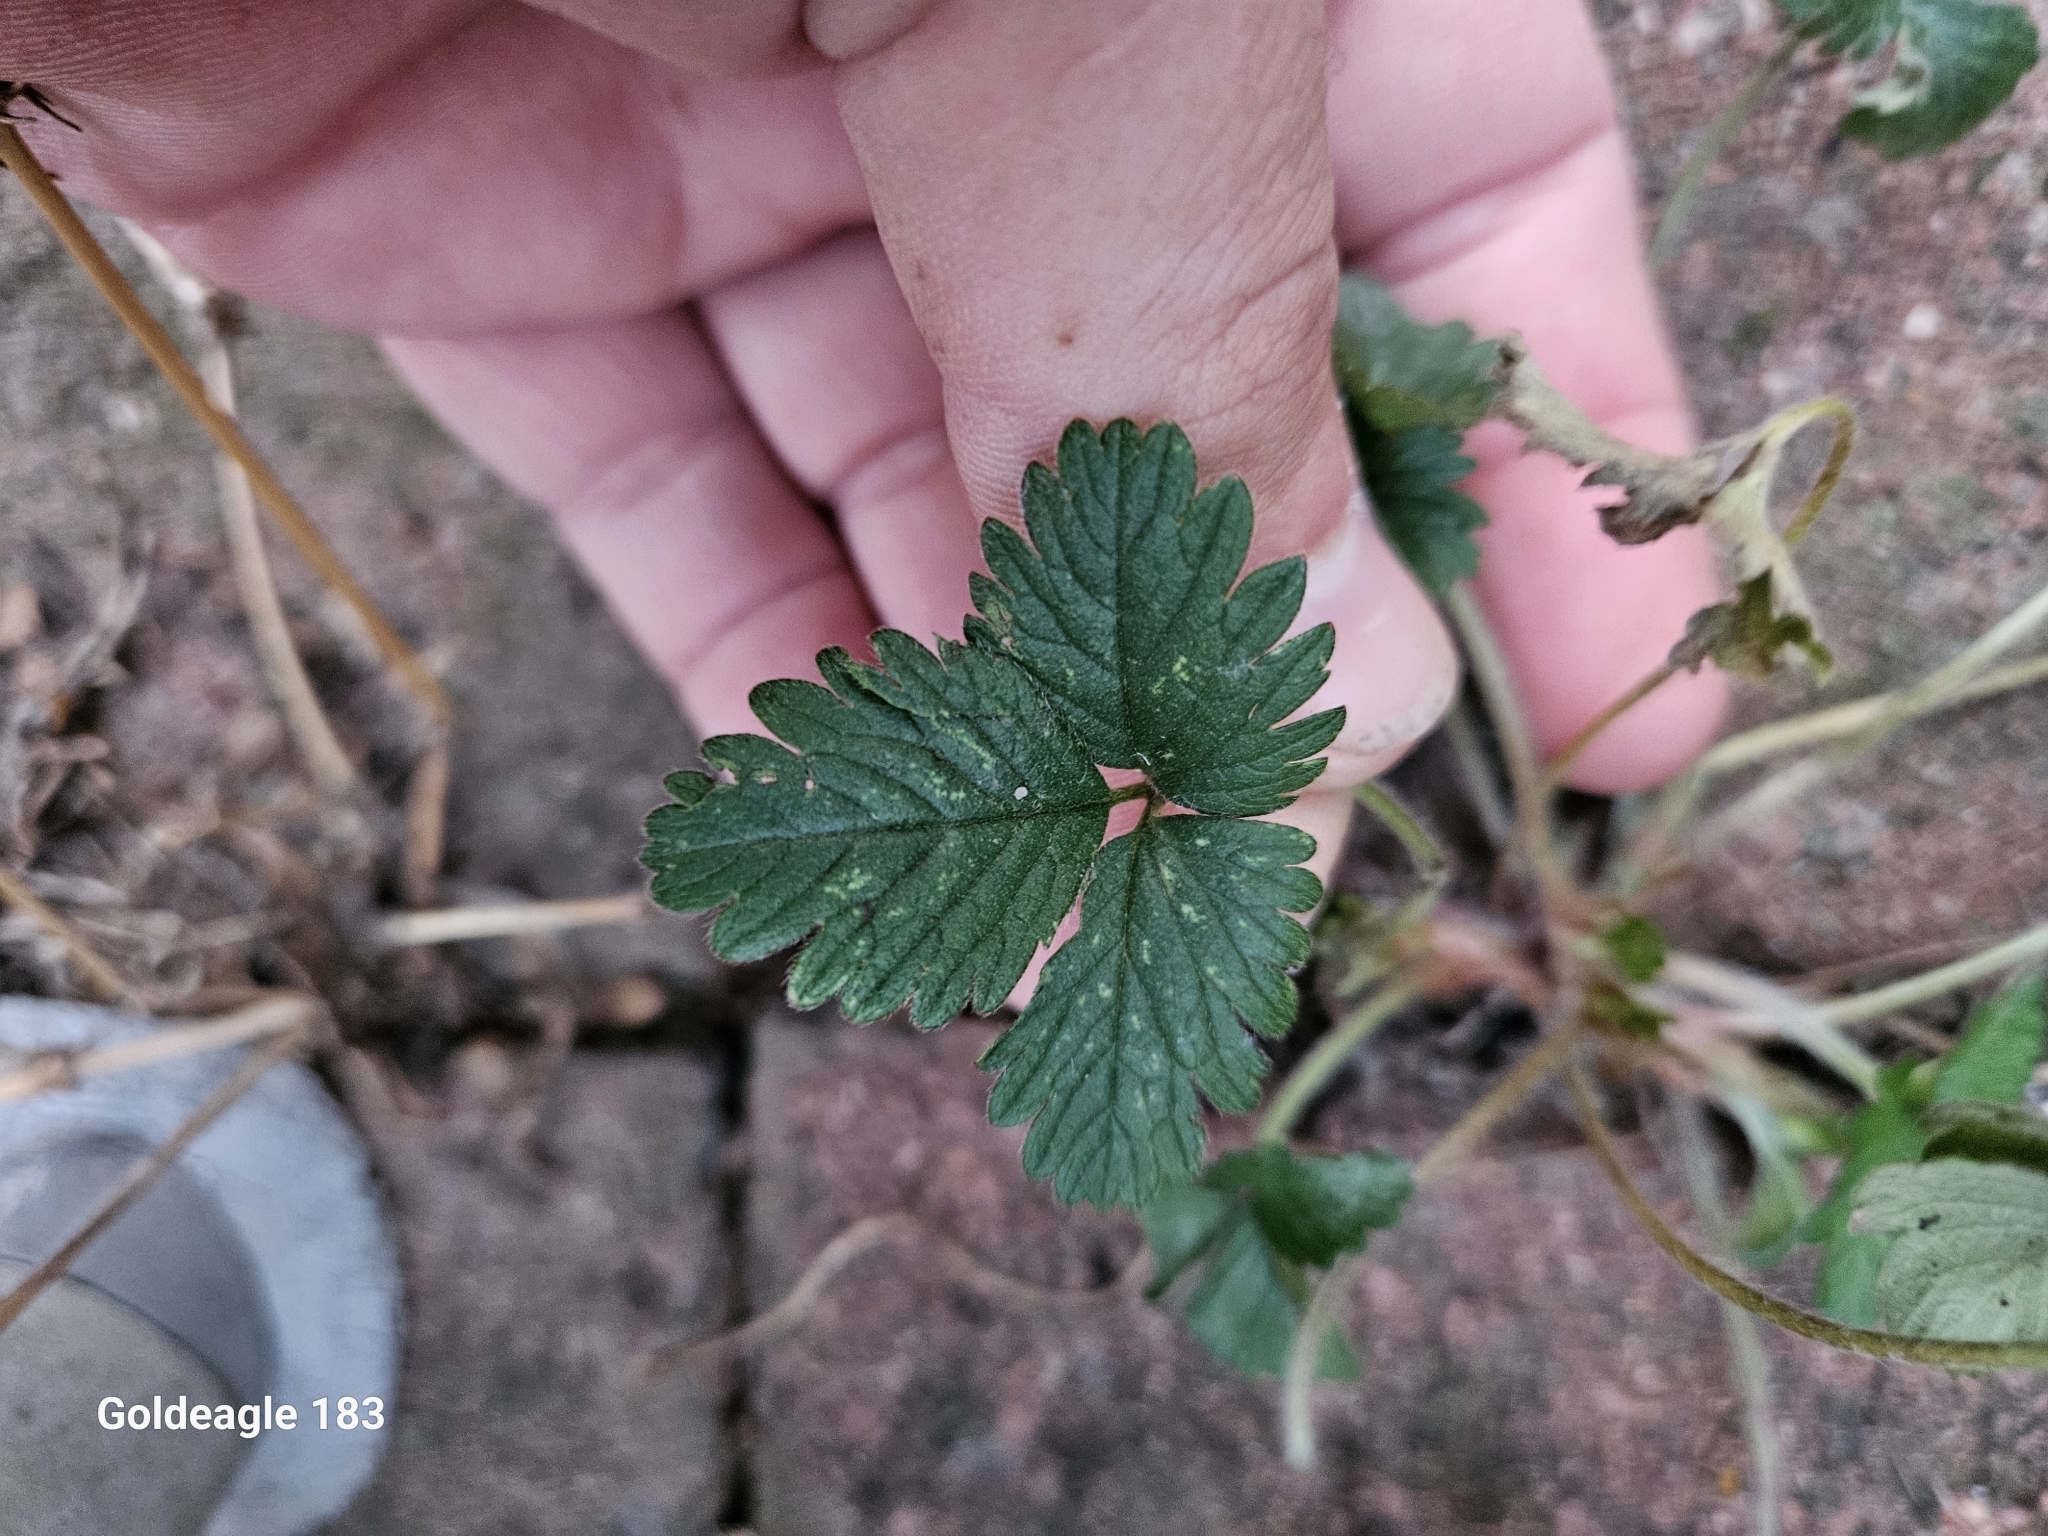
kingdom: Plantae
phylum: Tracheophyta
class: Magnoliopsida
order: Rosales
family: Rosaceae
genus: Potentilla
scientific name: Potentilla indica
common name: Yellow-flowered strawberry
